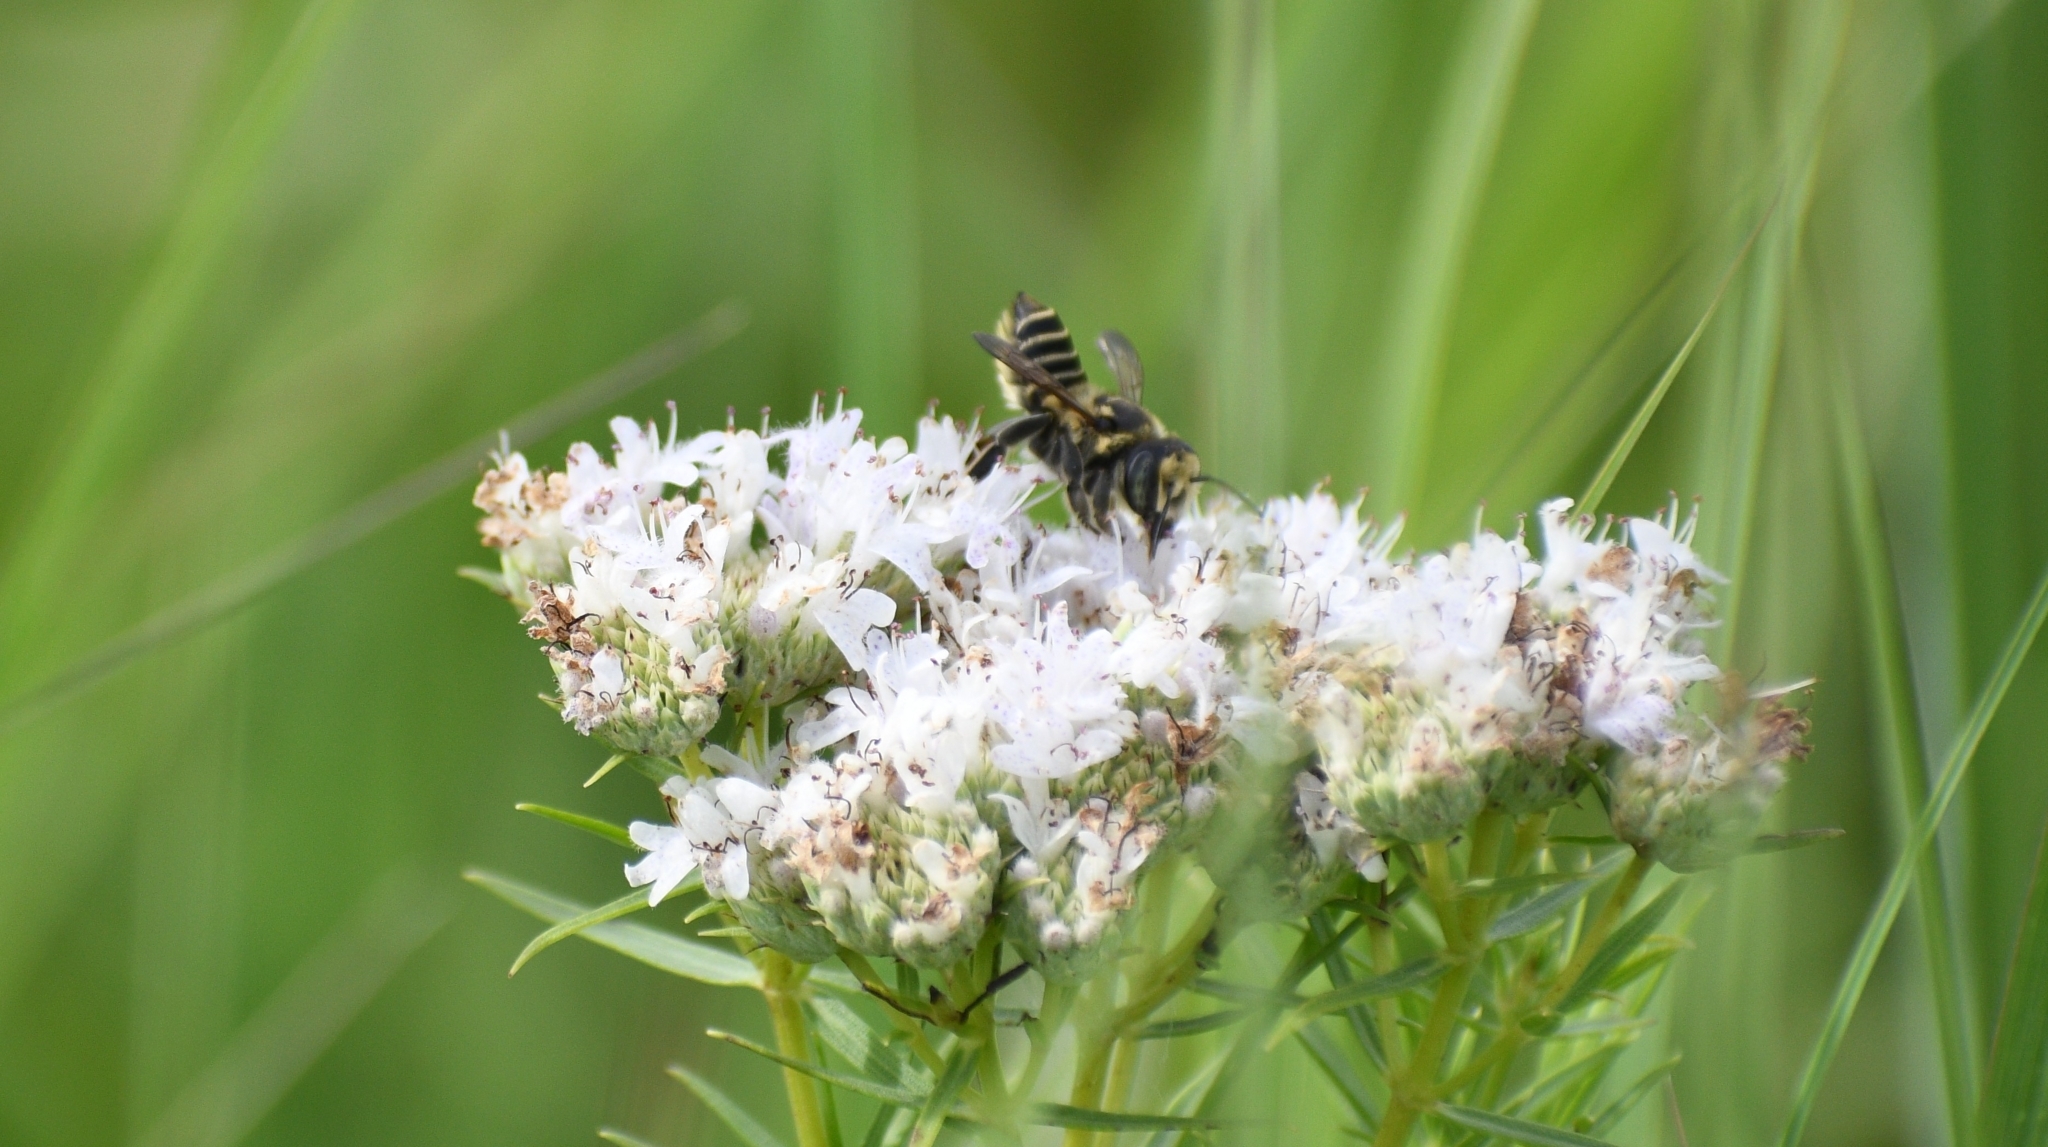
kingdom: Animalia
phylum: Arthropoda
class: Insecta
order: Hymenoptera
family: Megachilidae
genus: Megachile
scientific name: Megachile albitarsis
